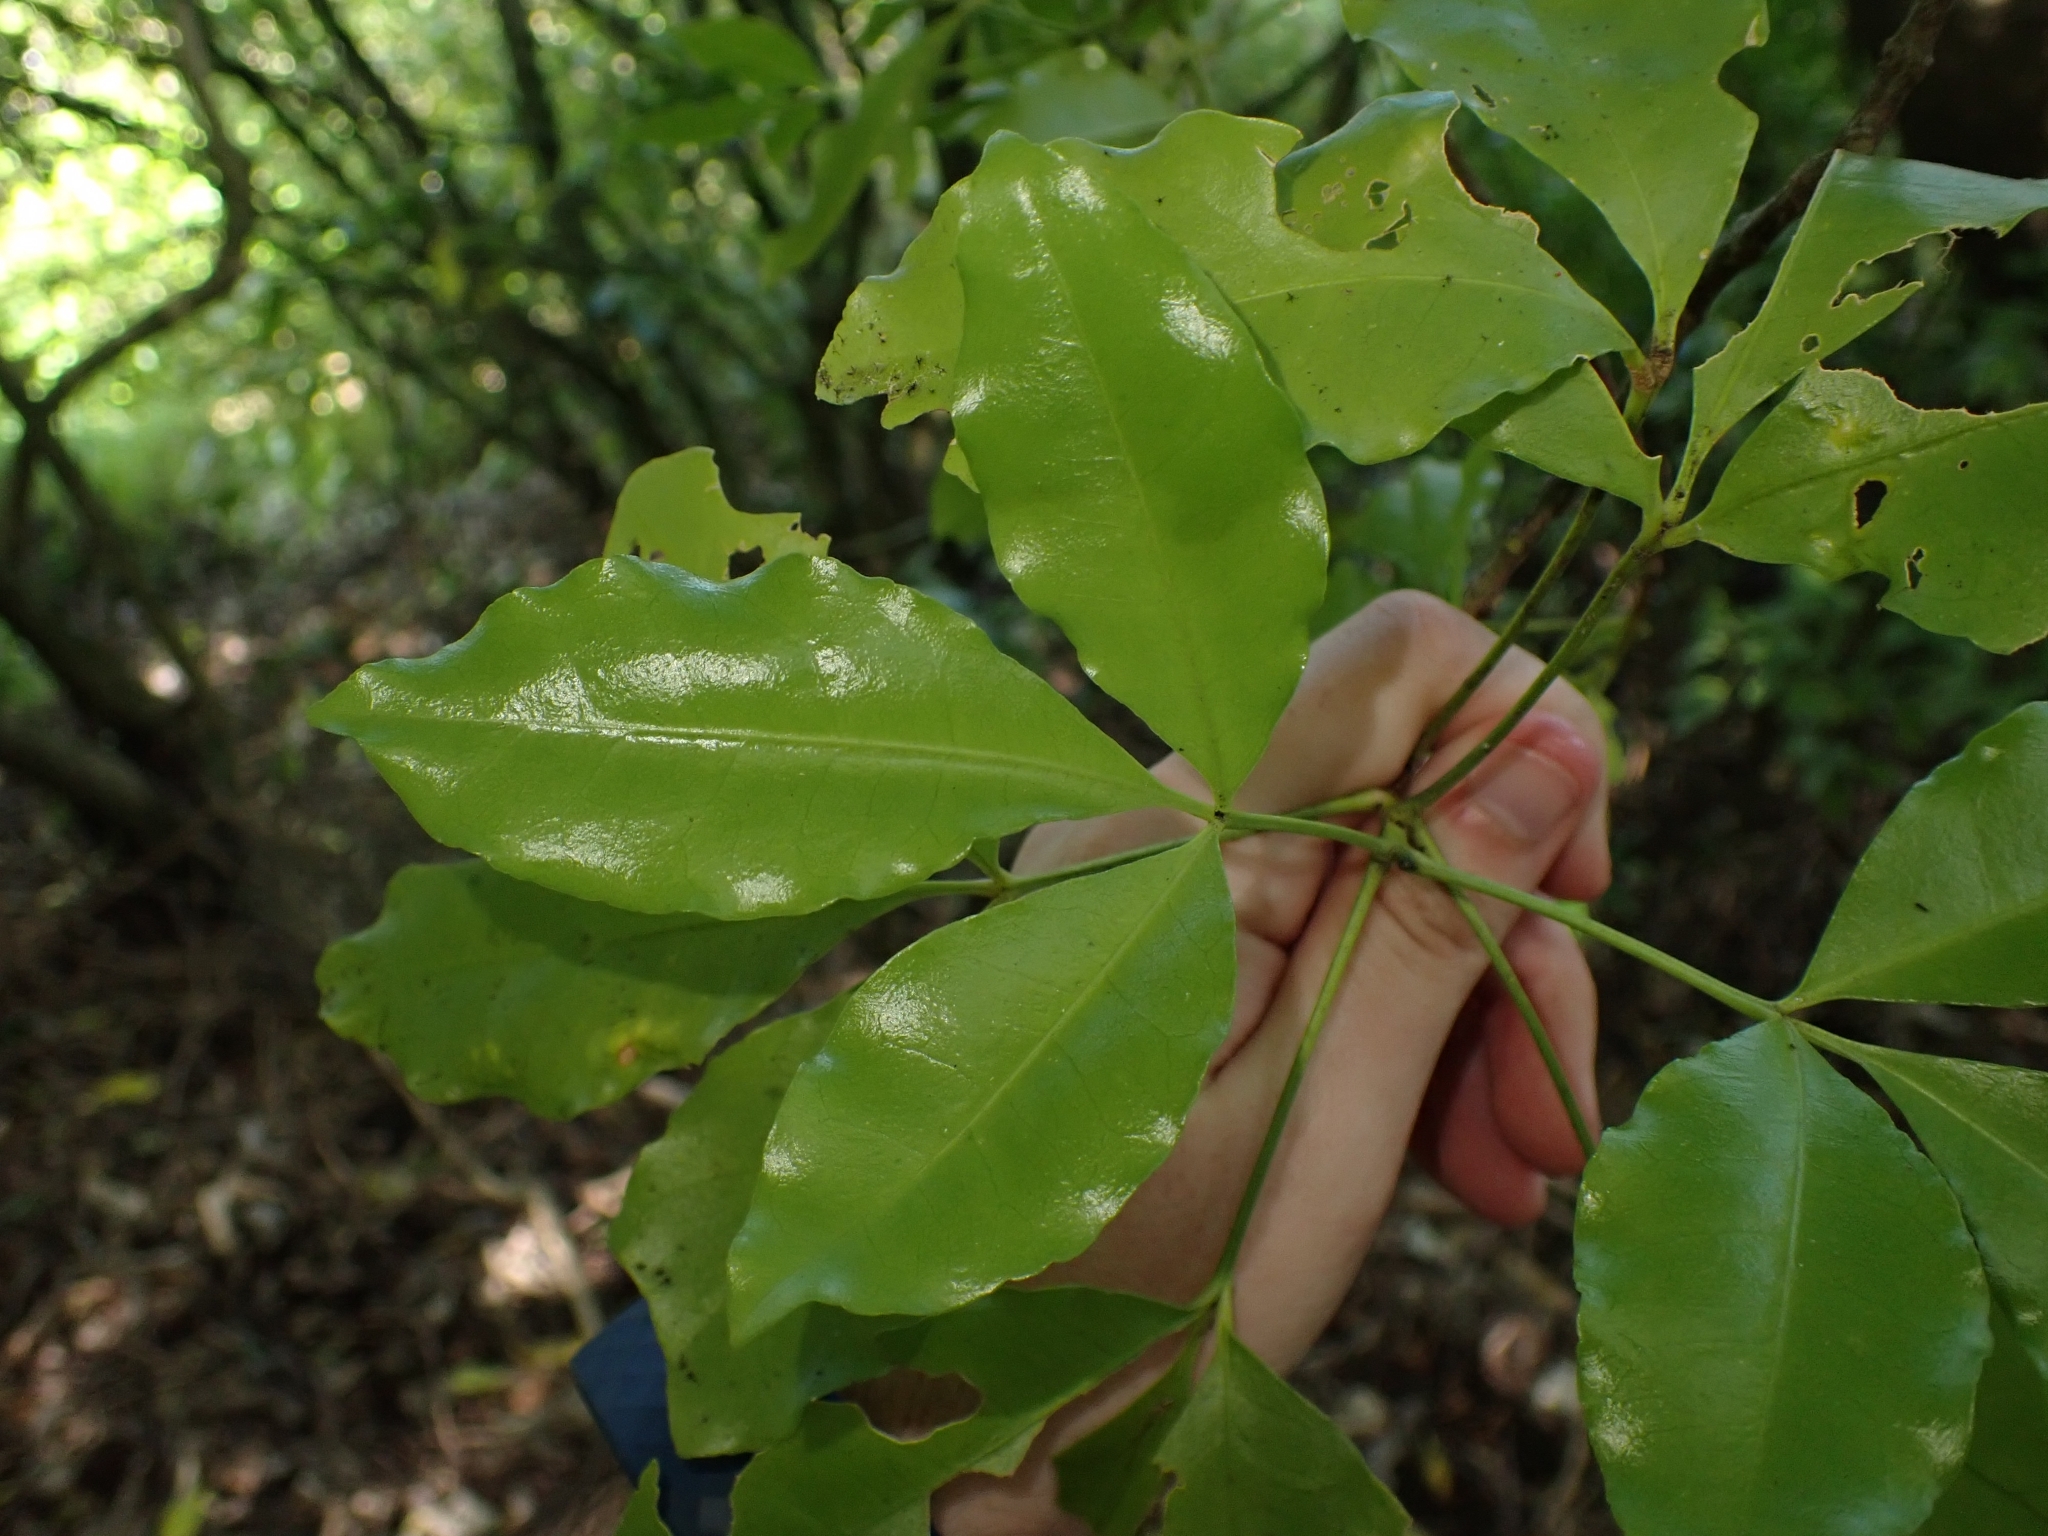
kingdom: Plantae
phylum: Tracheophyta
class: Magnoliopsida
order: Sapindales
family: Rutaceae
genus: Melicope
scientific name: Melicope ternata
